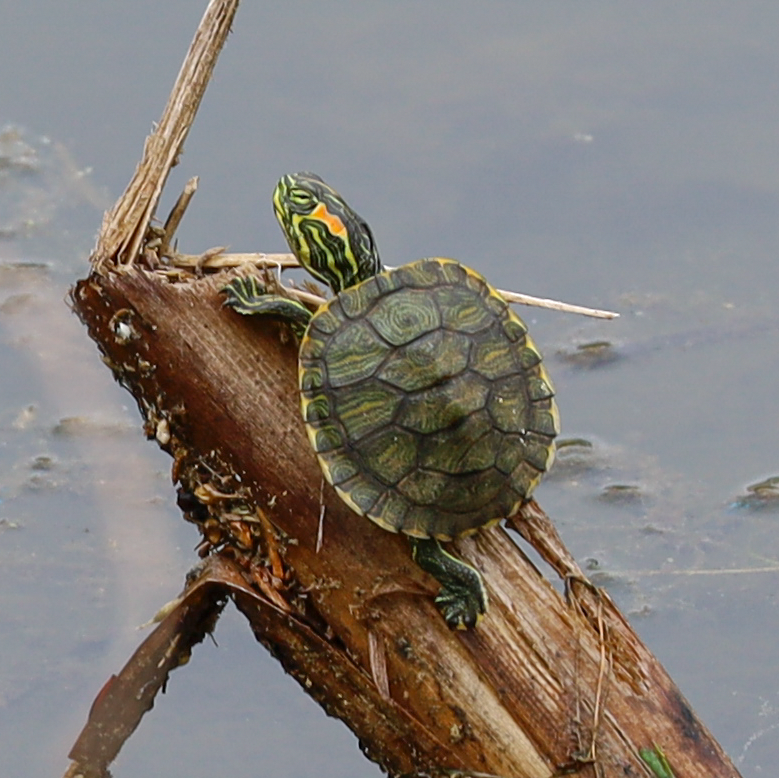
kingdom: Animalia
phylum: Chordata
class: Testudines
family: Emydidae
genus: Trachemys
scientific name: Trachemys scripta
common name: Slider
